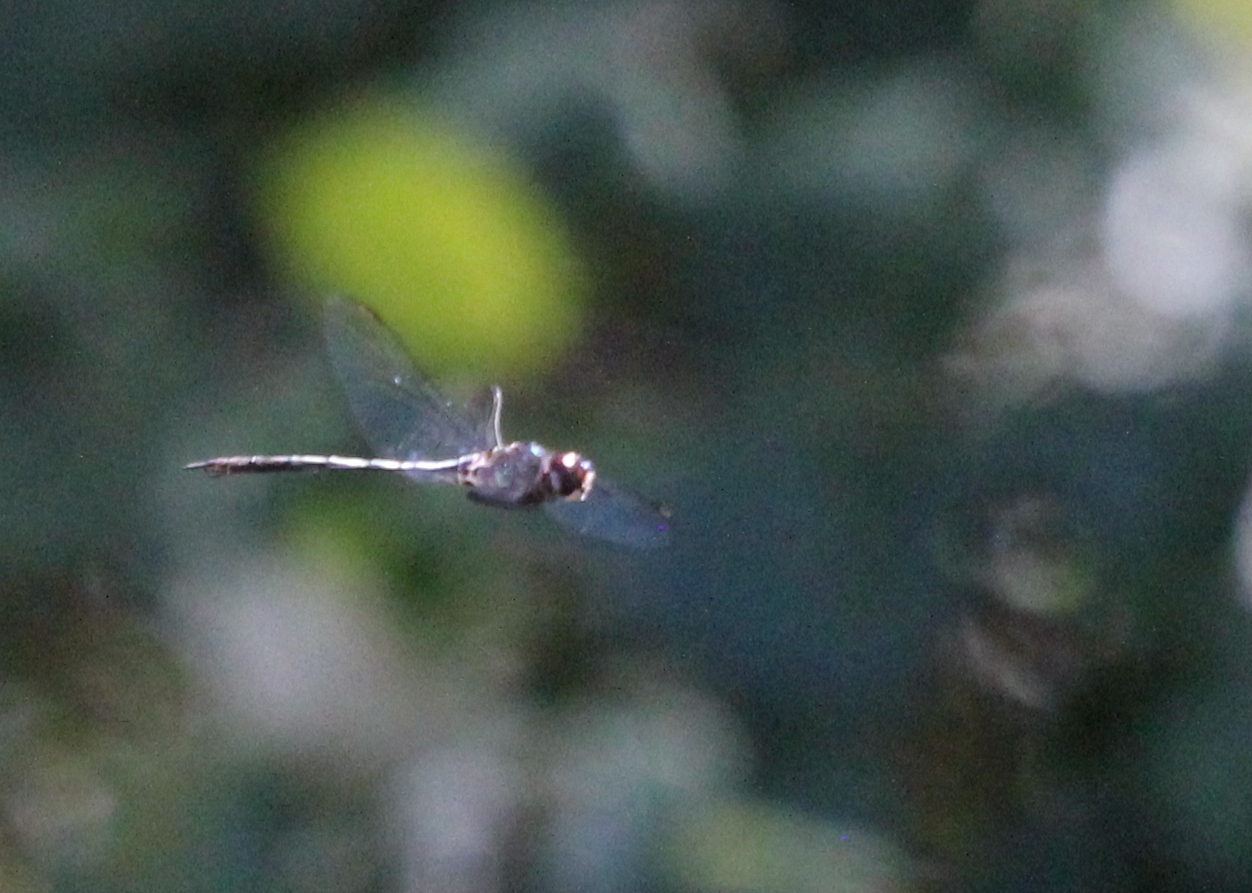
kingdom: Animalia
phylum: Arthropoda
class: Insecta
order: Odonata
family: Corduliidae
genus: Somatochlora
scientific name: Somatochlora filosa
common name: Fine-lined emerald
